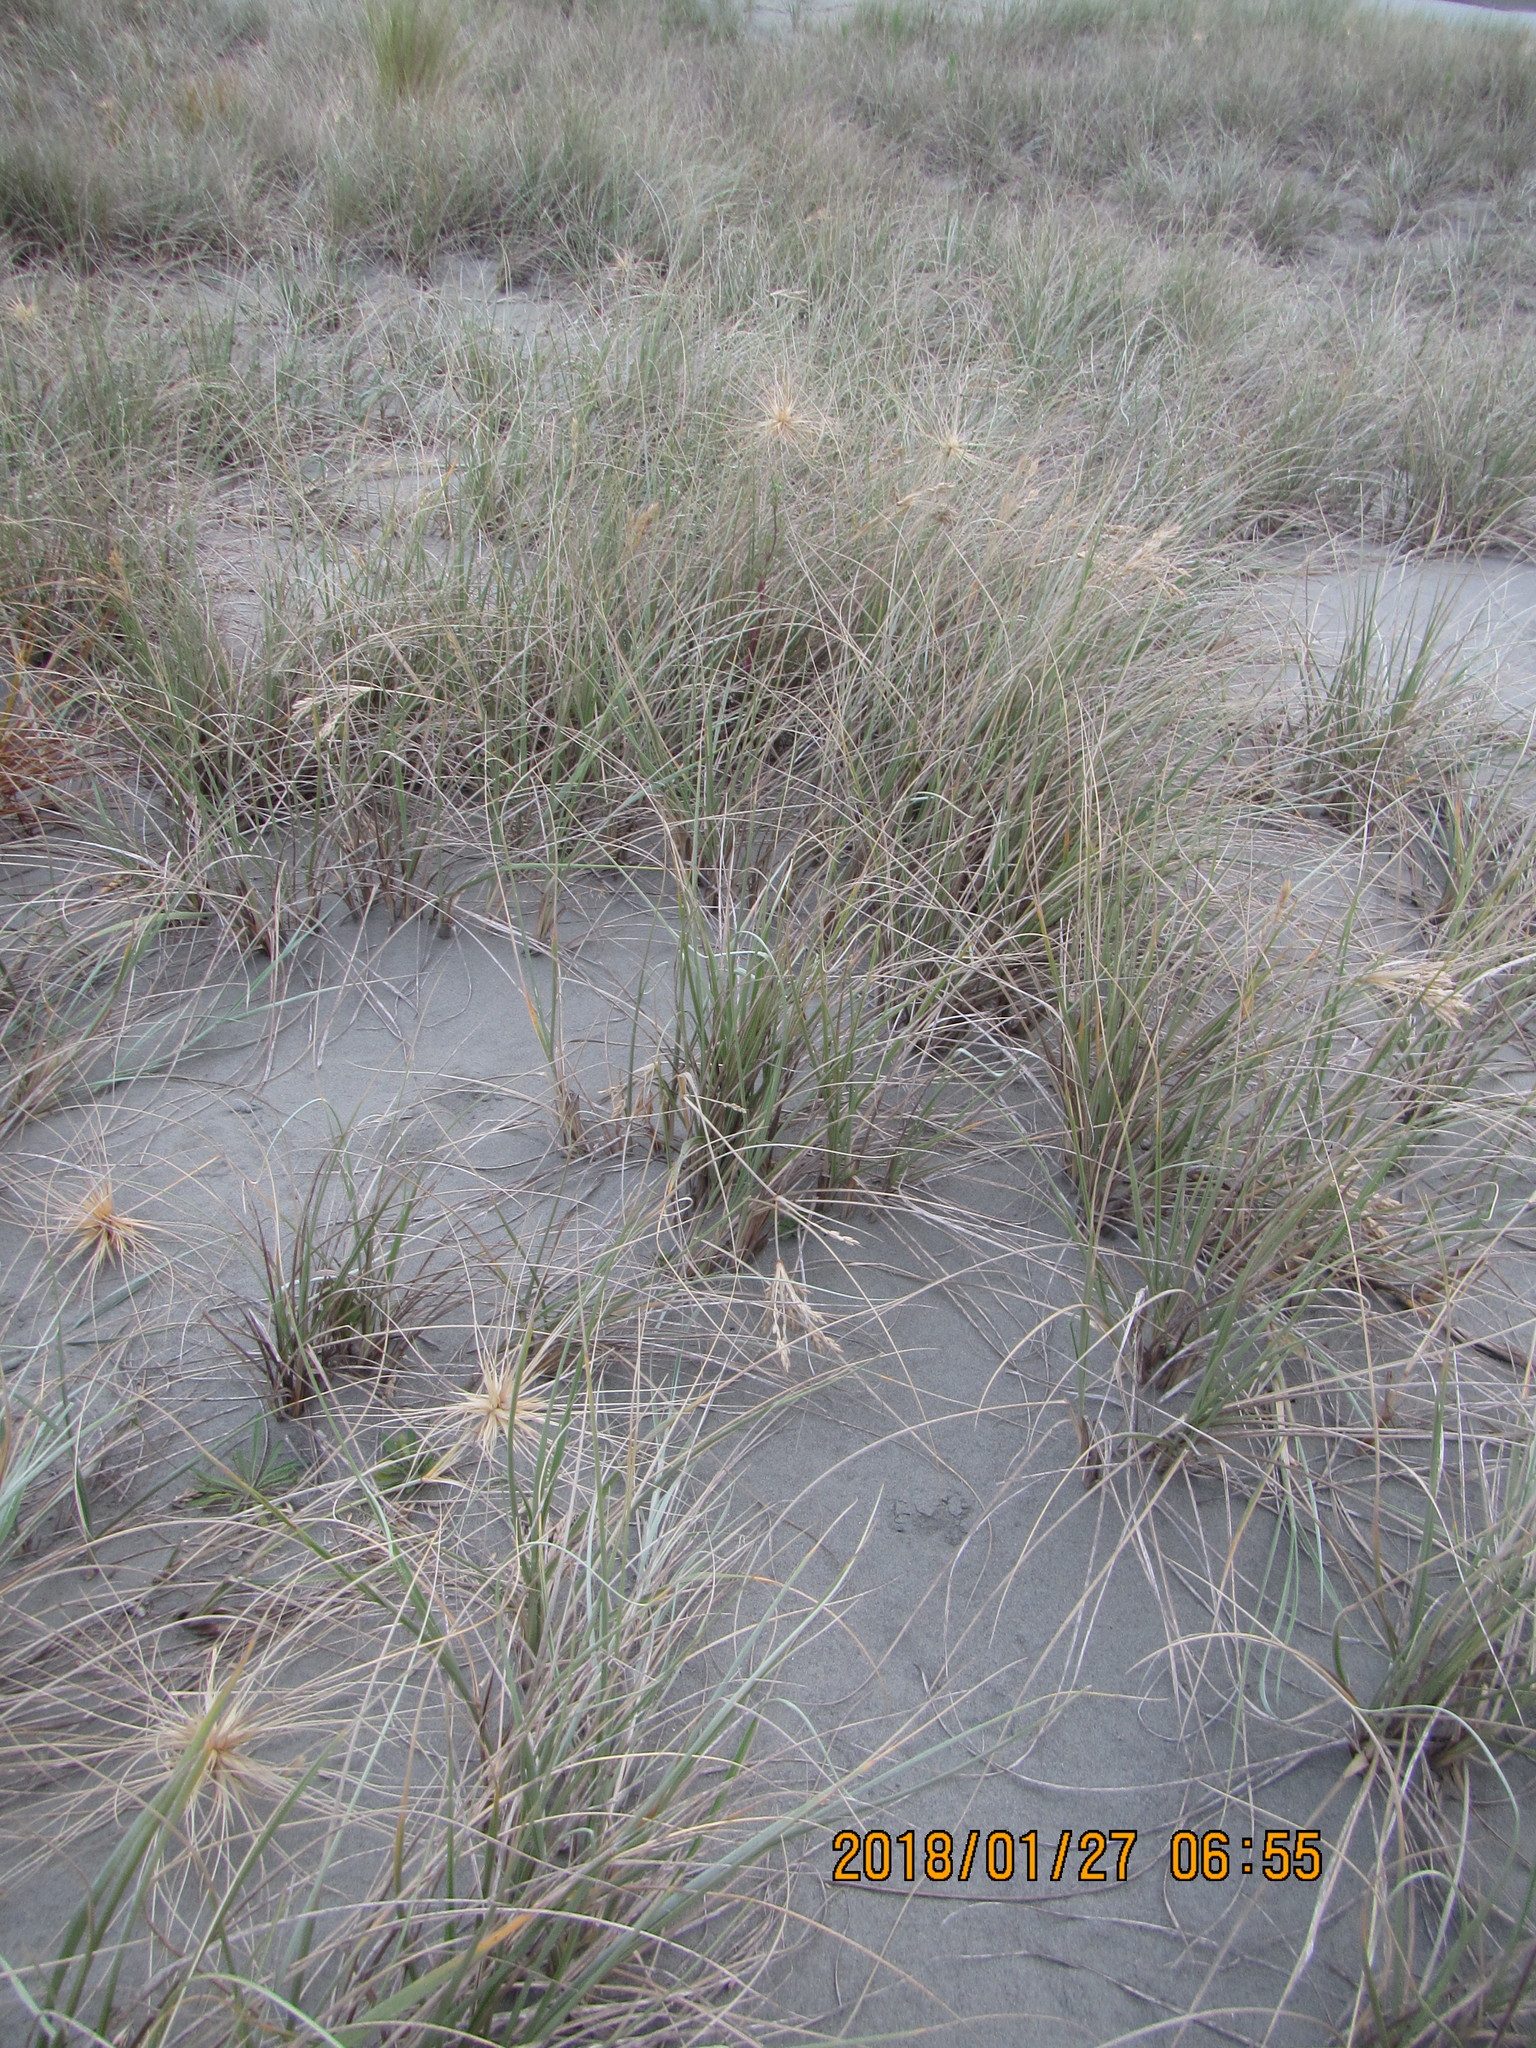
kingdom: Plantae
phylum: Tracheophyta
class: Liliopsida
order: Poales
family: Poaceae
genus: Spinifex
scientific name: Spinifex sericeus
